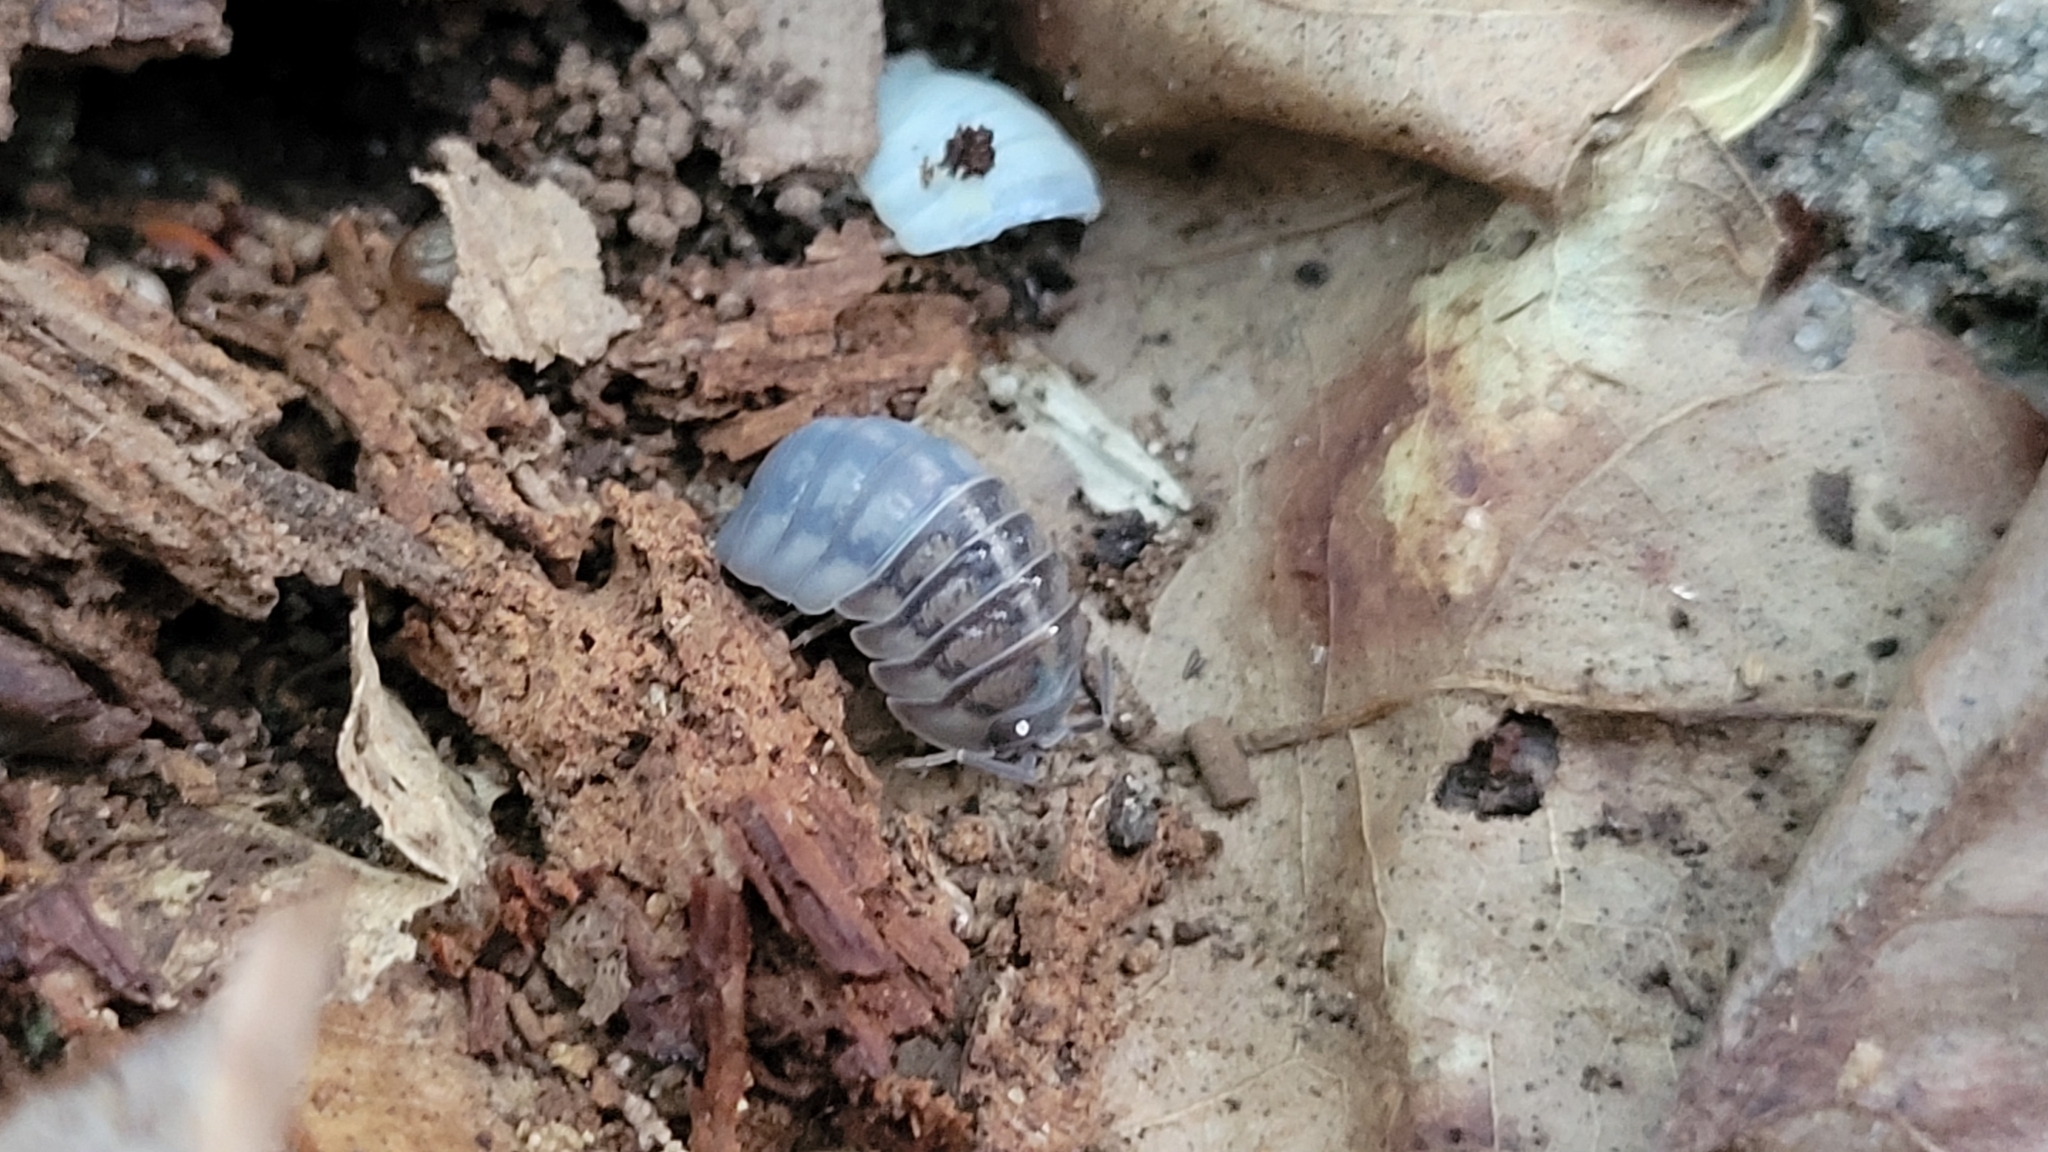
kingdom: Animalia
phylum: Arthropoda
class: Malacostraca
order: Isopoda
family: Armadillidiidae
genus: Armadillidium
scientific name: Armadillidium nasatum
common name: Isopod
